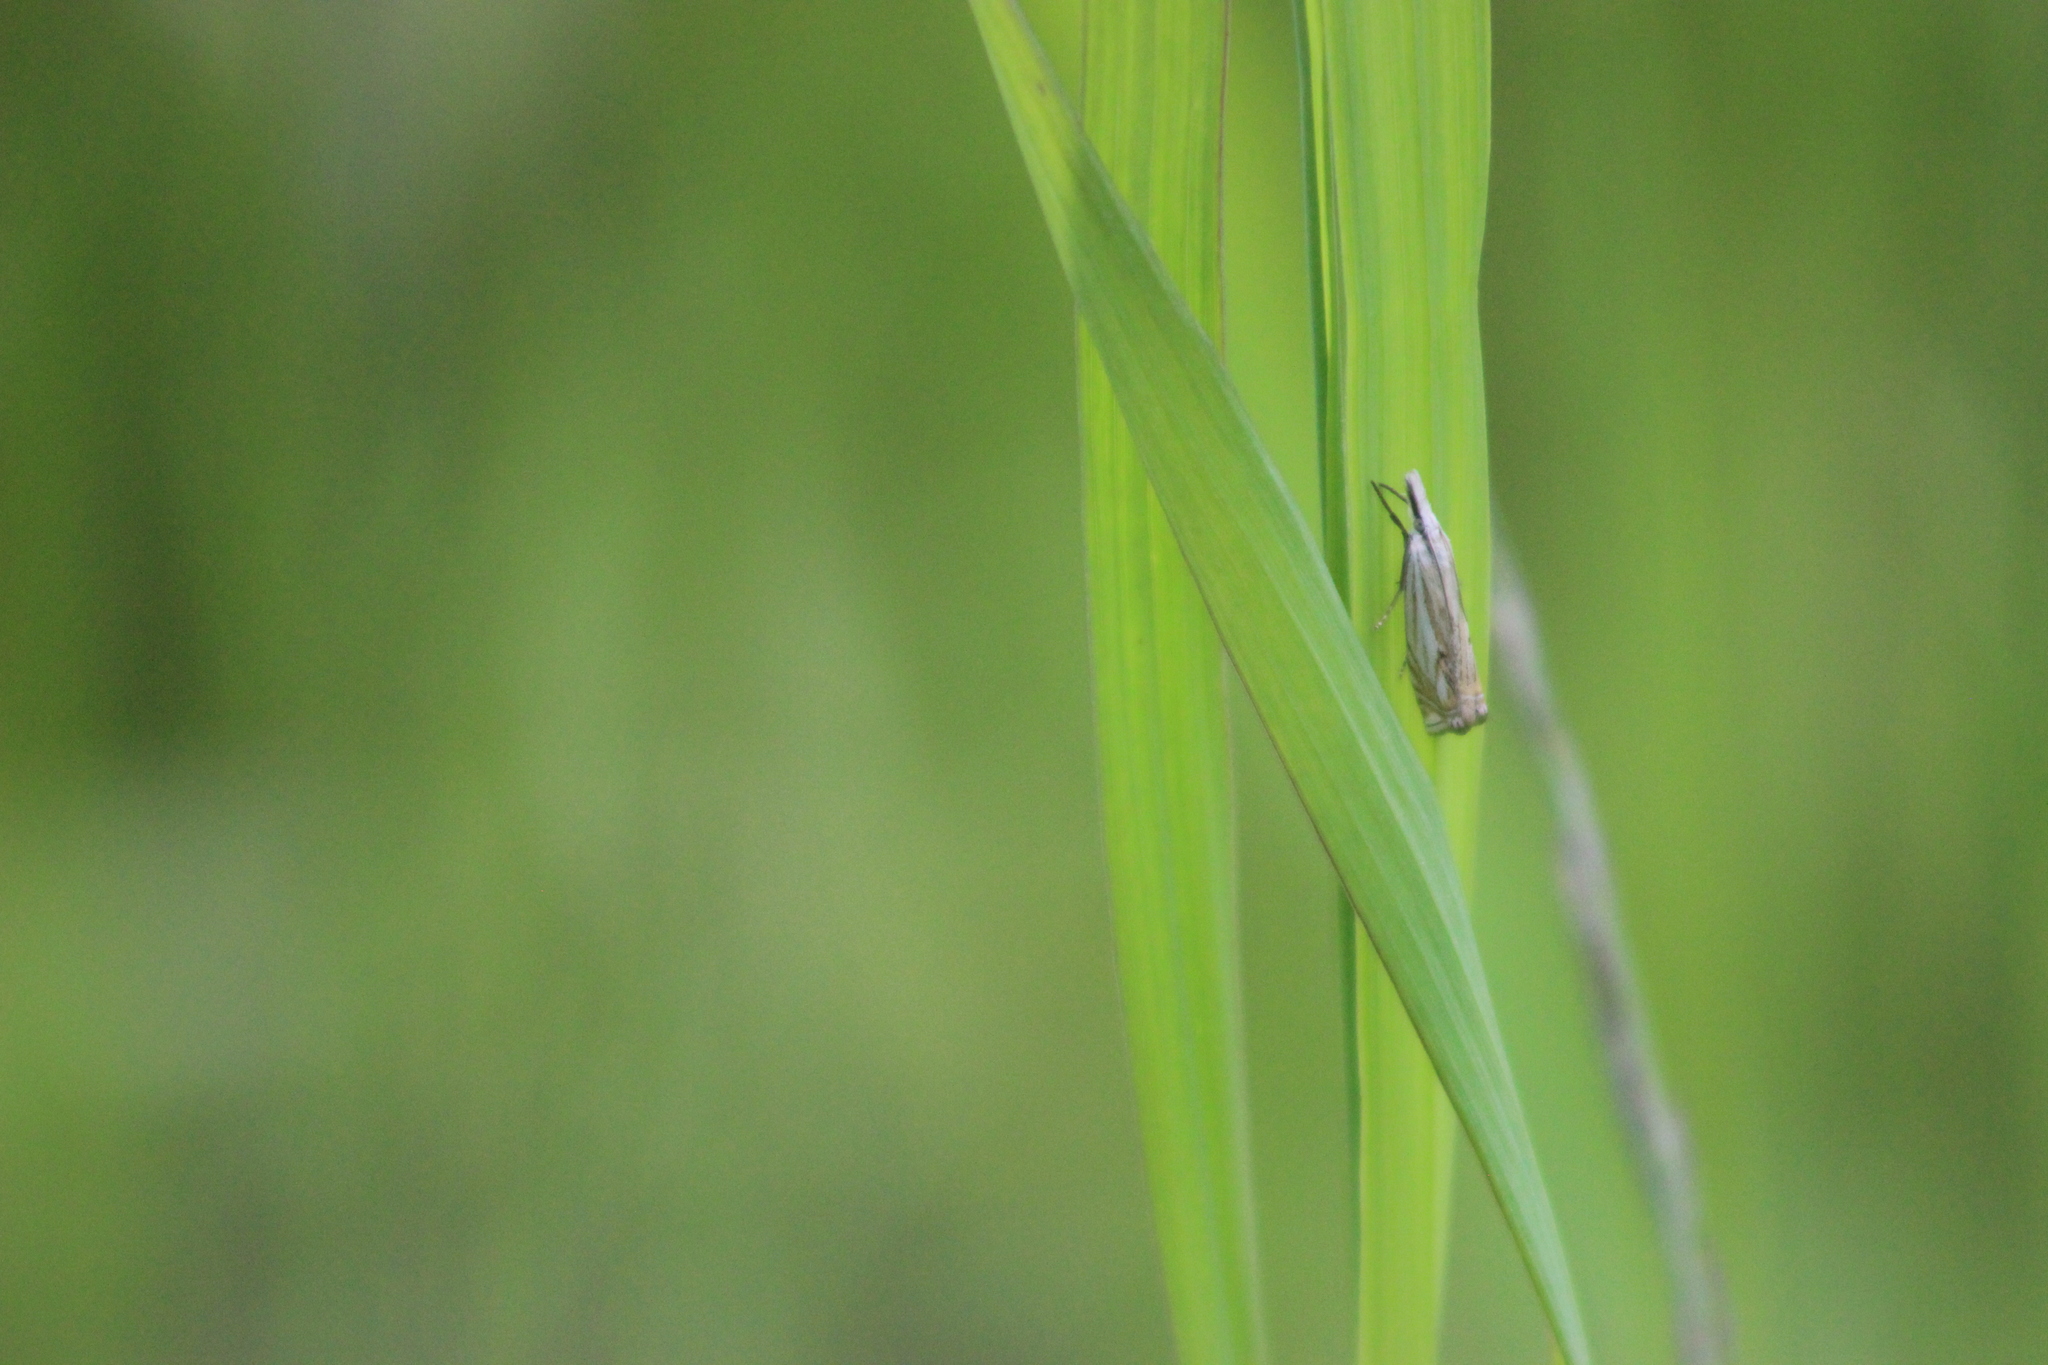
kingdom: Animalia
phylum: Arthropoda
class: Insecta
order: Lepidoptera
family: Crambidae
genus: Crambus
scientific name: Crambus nemorella
